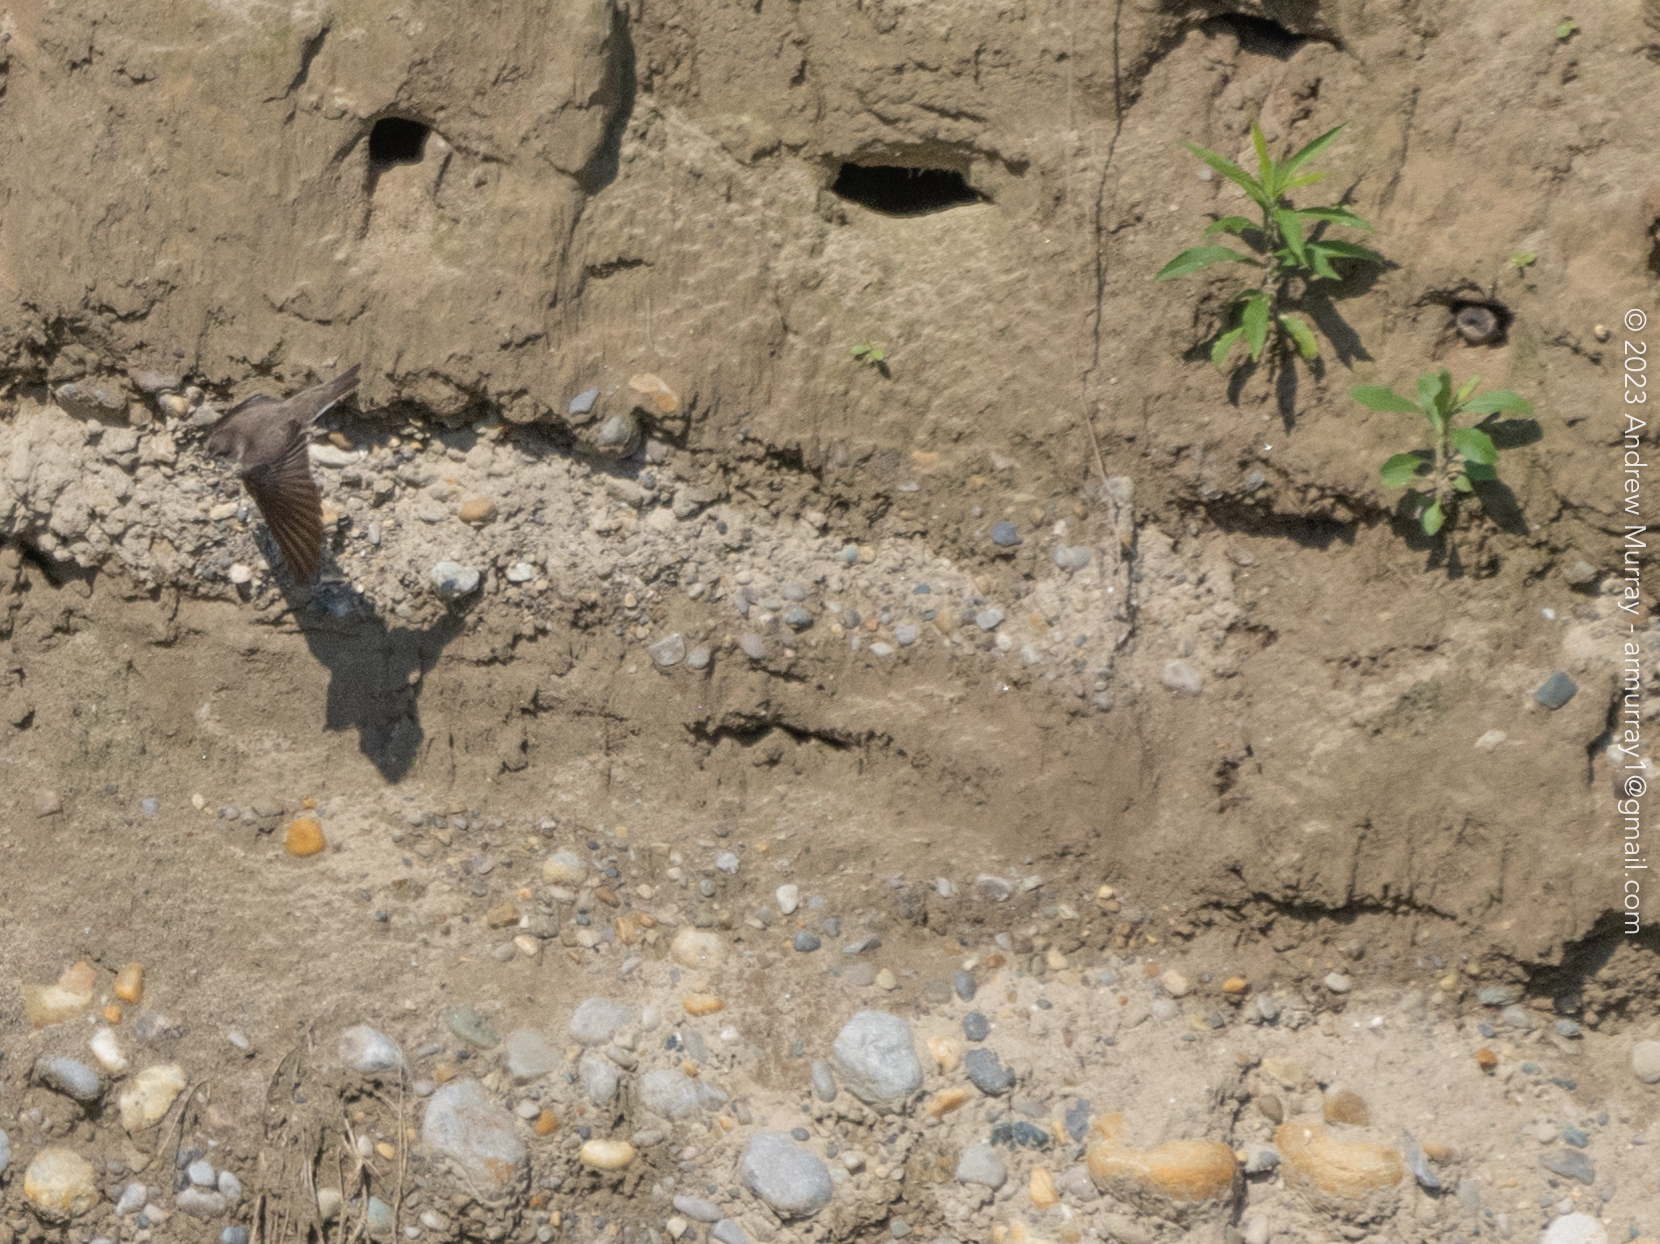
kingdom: Animalia
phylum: Chordata
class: Aves
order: Passeriformes
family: Hirundinidae
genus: Riparia
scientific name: Riparia riparia
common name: Sand martin
